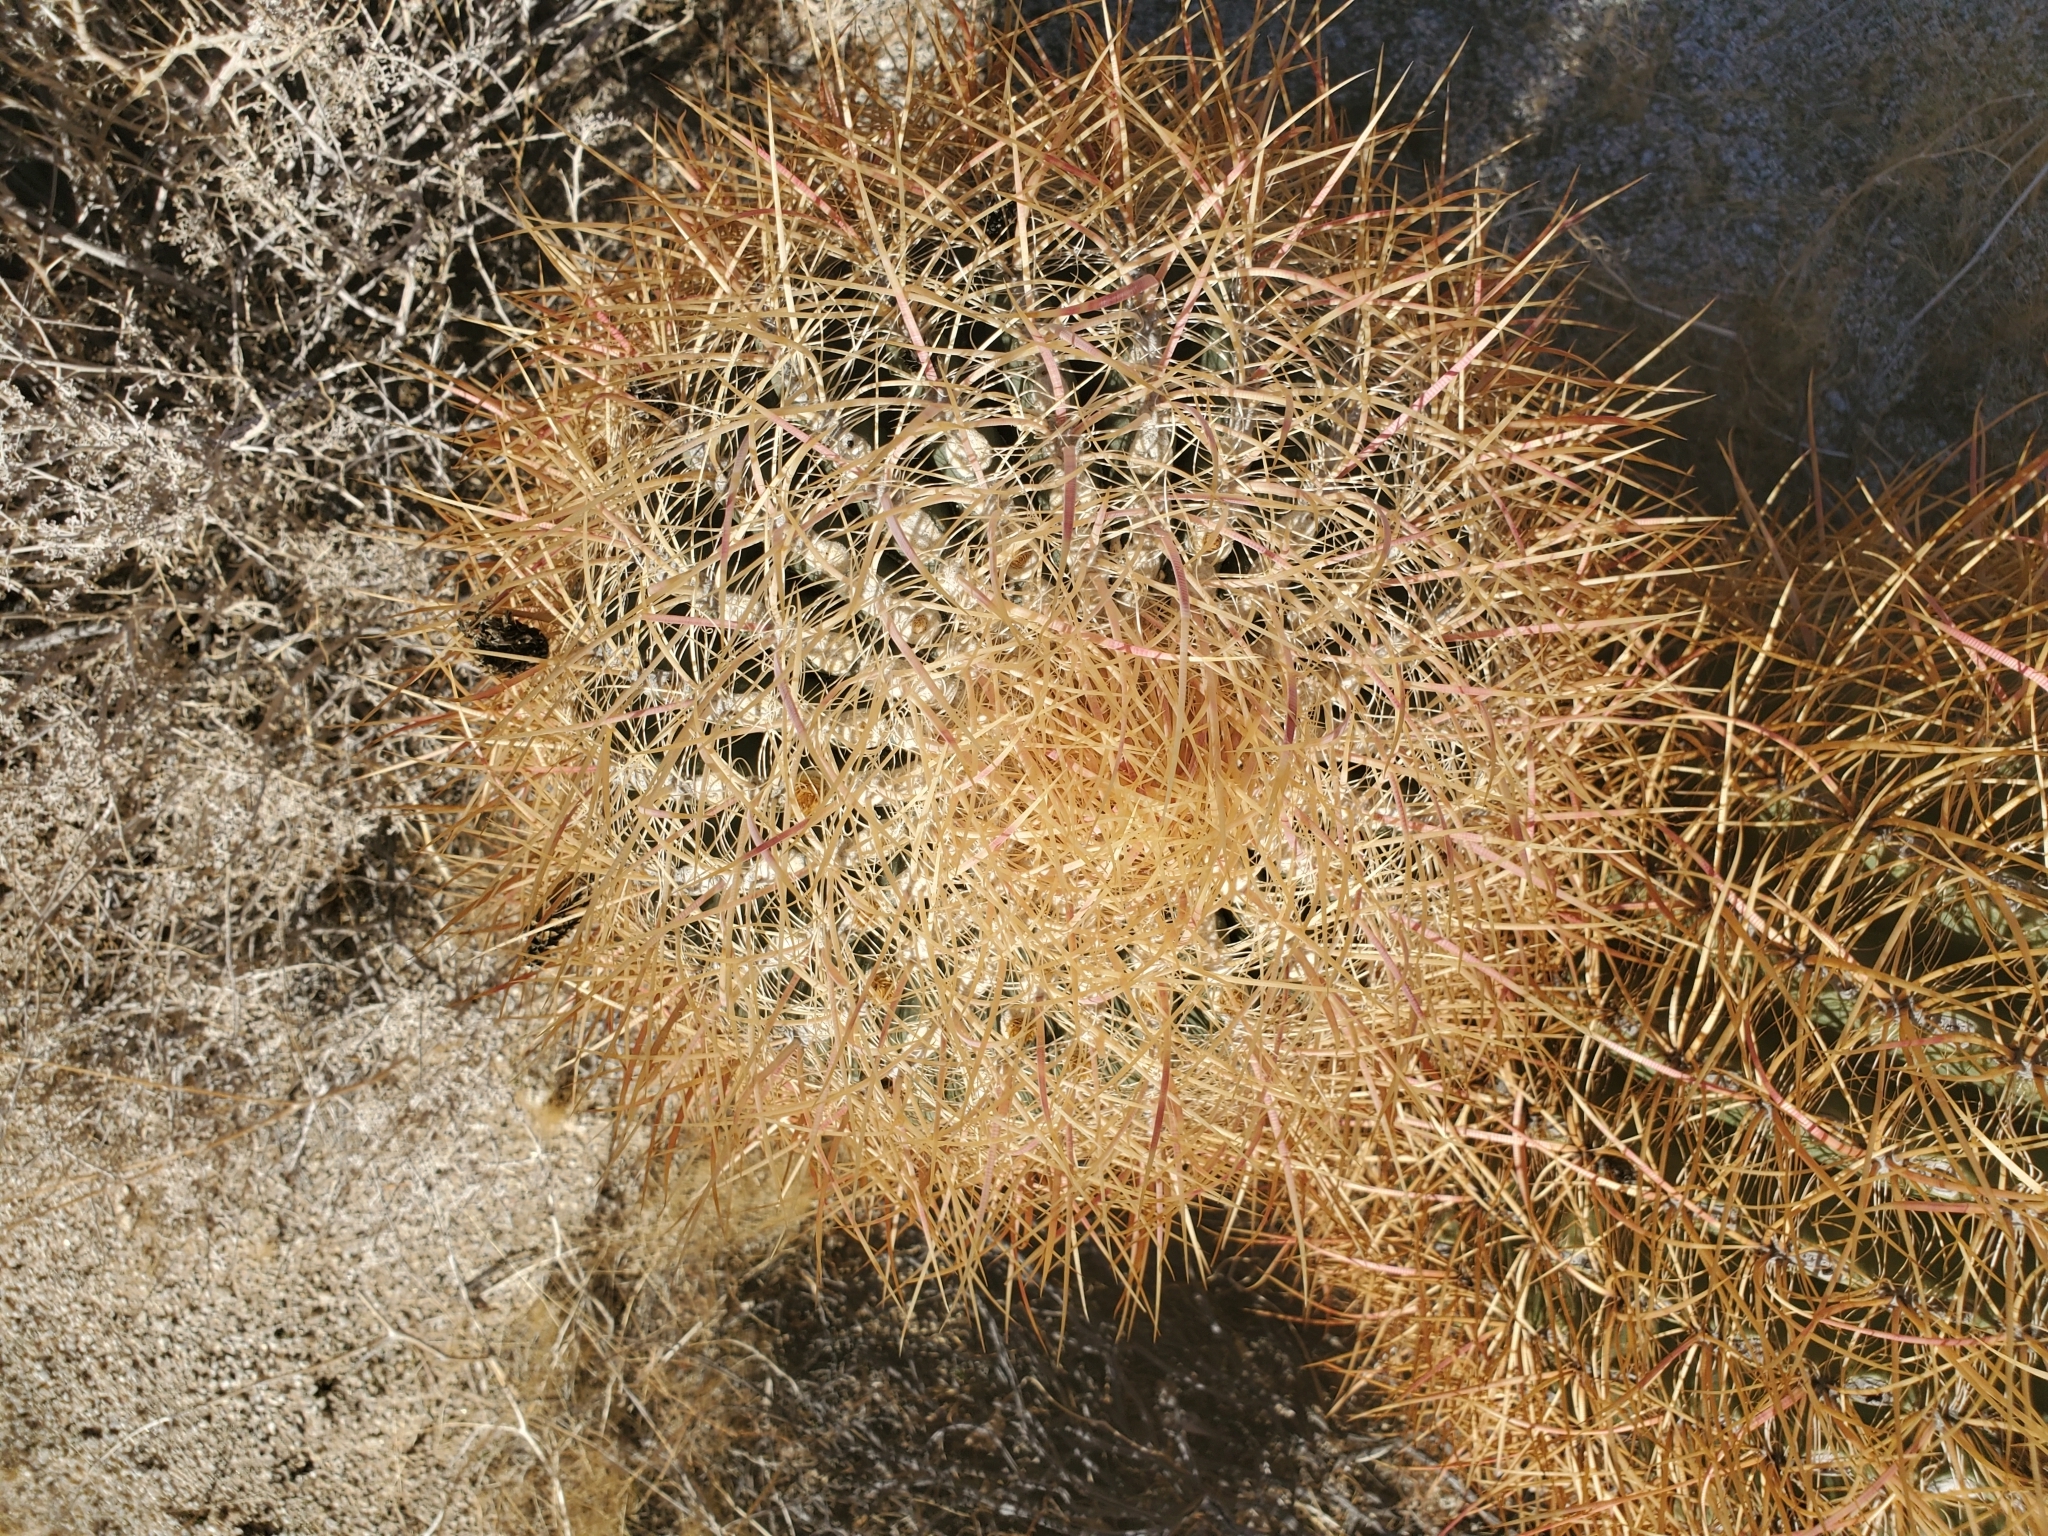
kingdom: Plantae
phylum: Tracheophyta
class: Magnoliopsida
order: Caryophyllales
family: Cactaceae
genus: Ferocactus
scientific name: Ferocactus cylindraceus
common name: California barrel cactus
